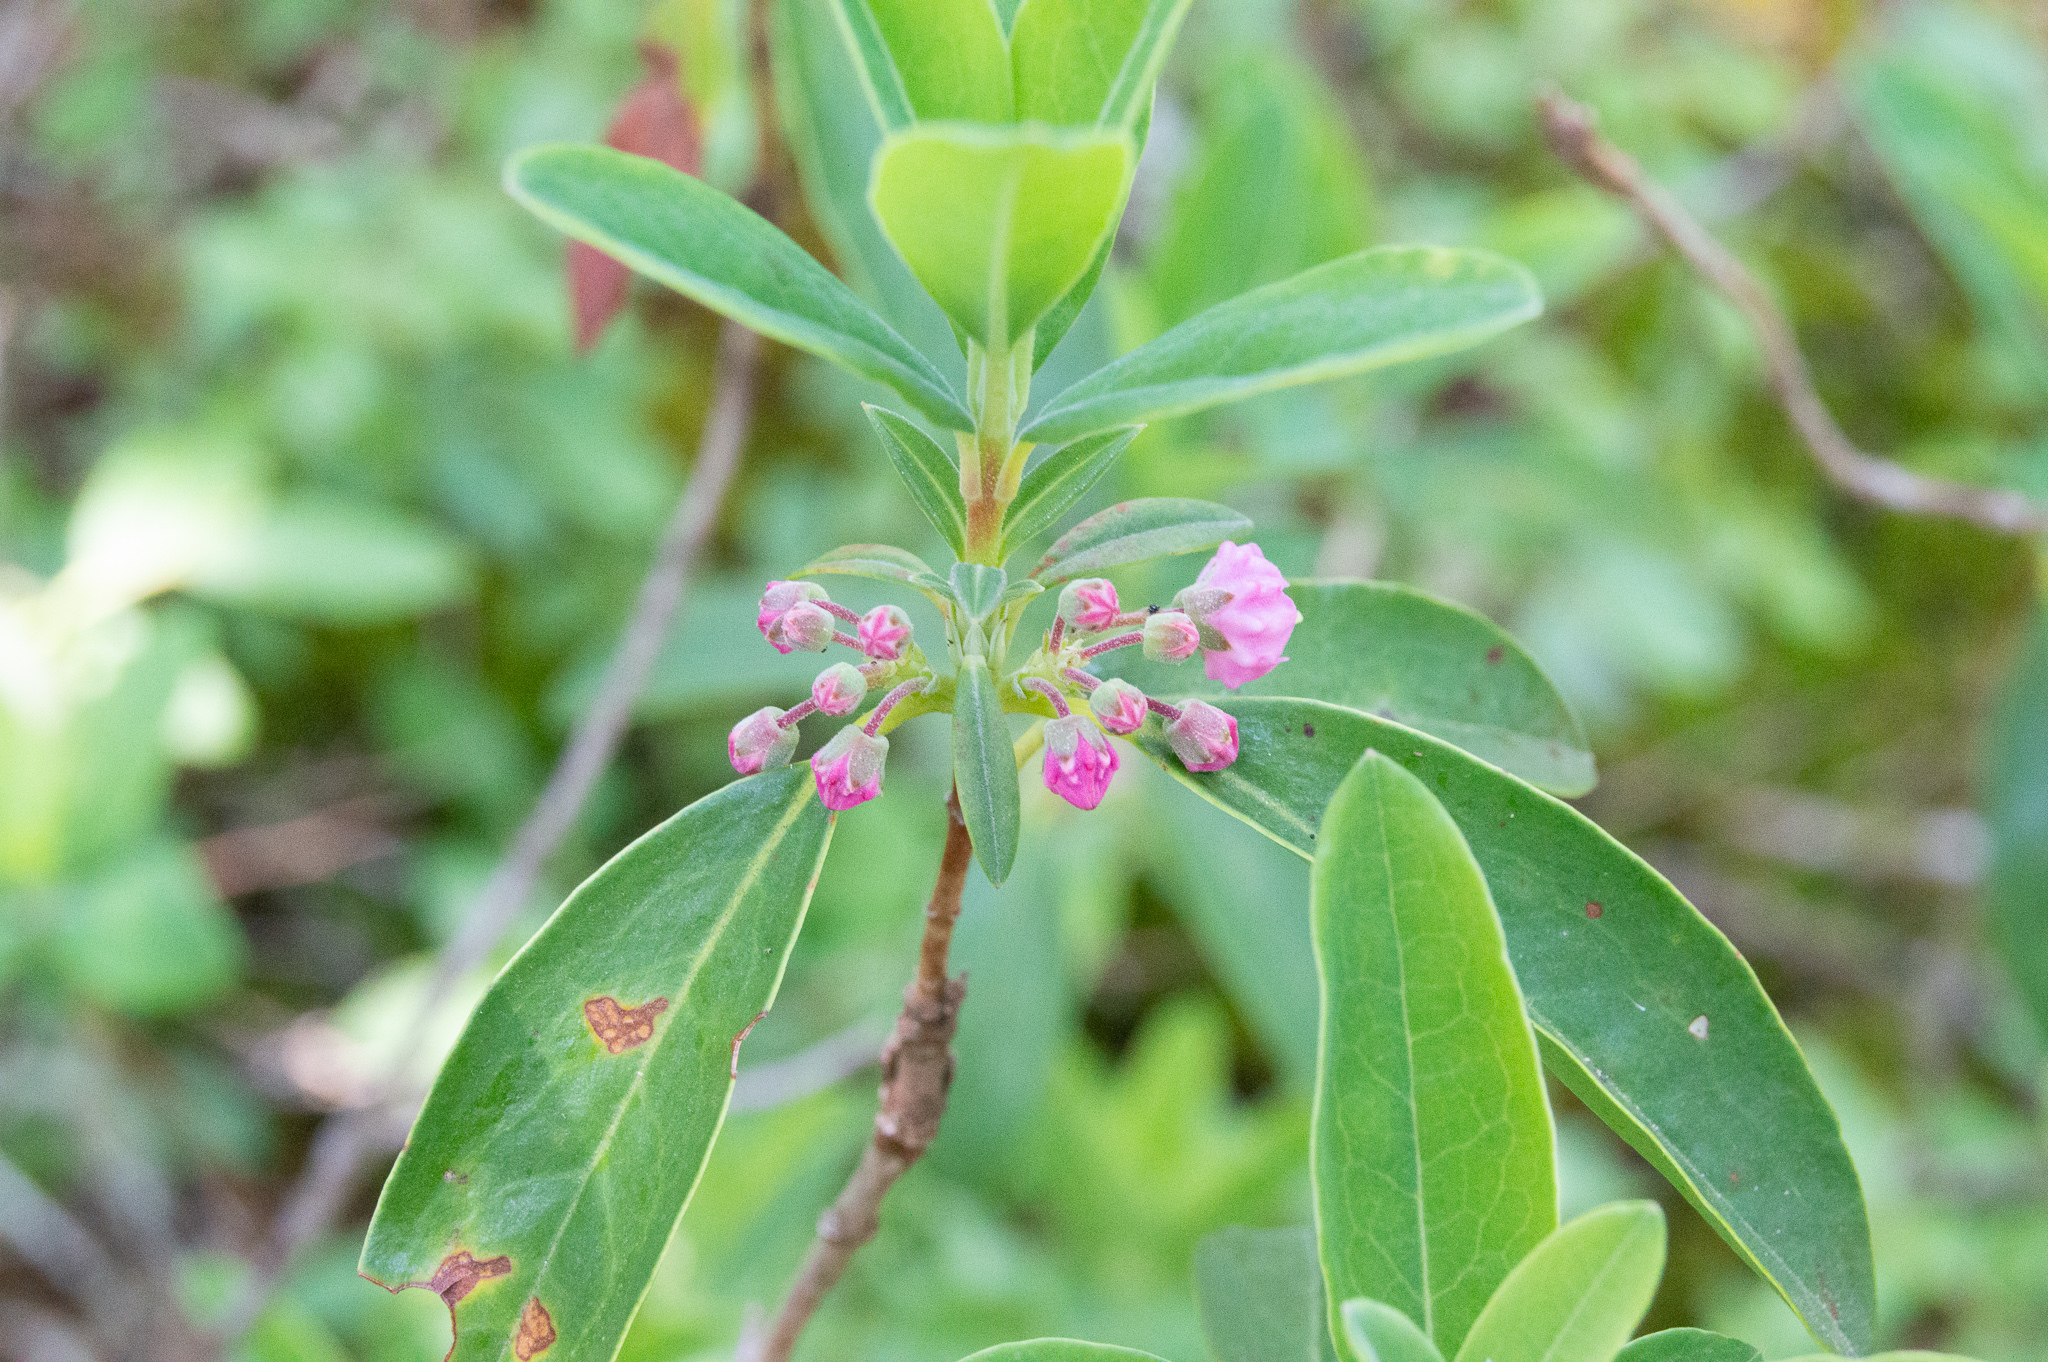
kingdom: Plantae
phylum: Tracheophyta
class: Magnoliopsida
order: Ericales
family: Ericaceae
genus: Kalmia
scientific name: Kalmia angustifolia
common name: Sheep-laurel
